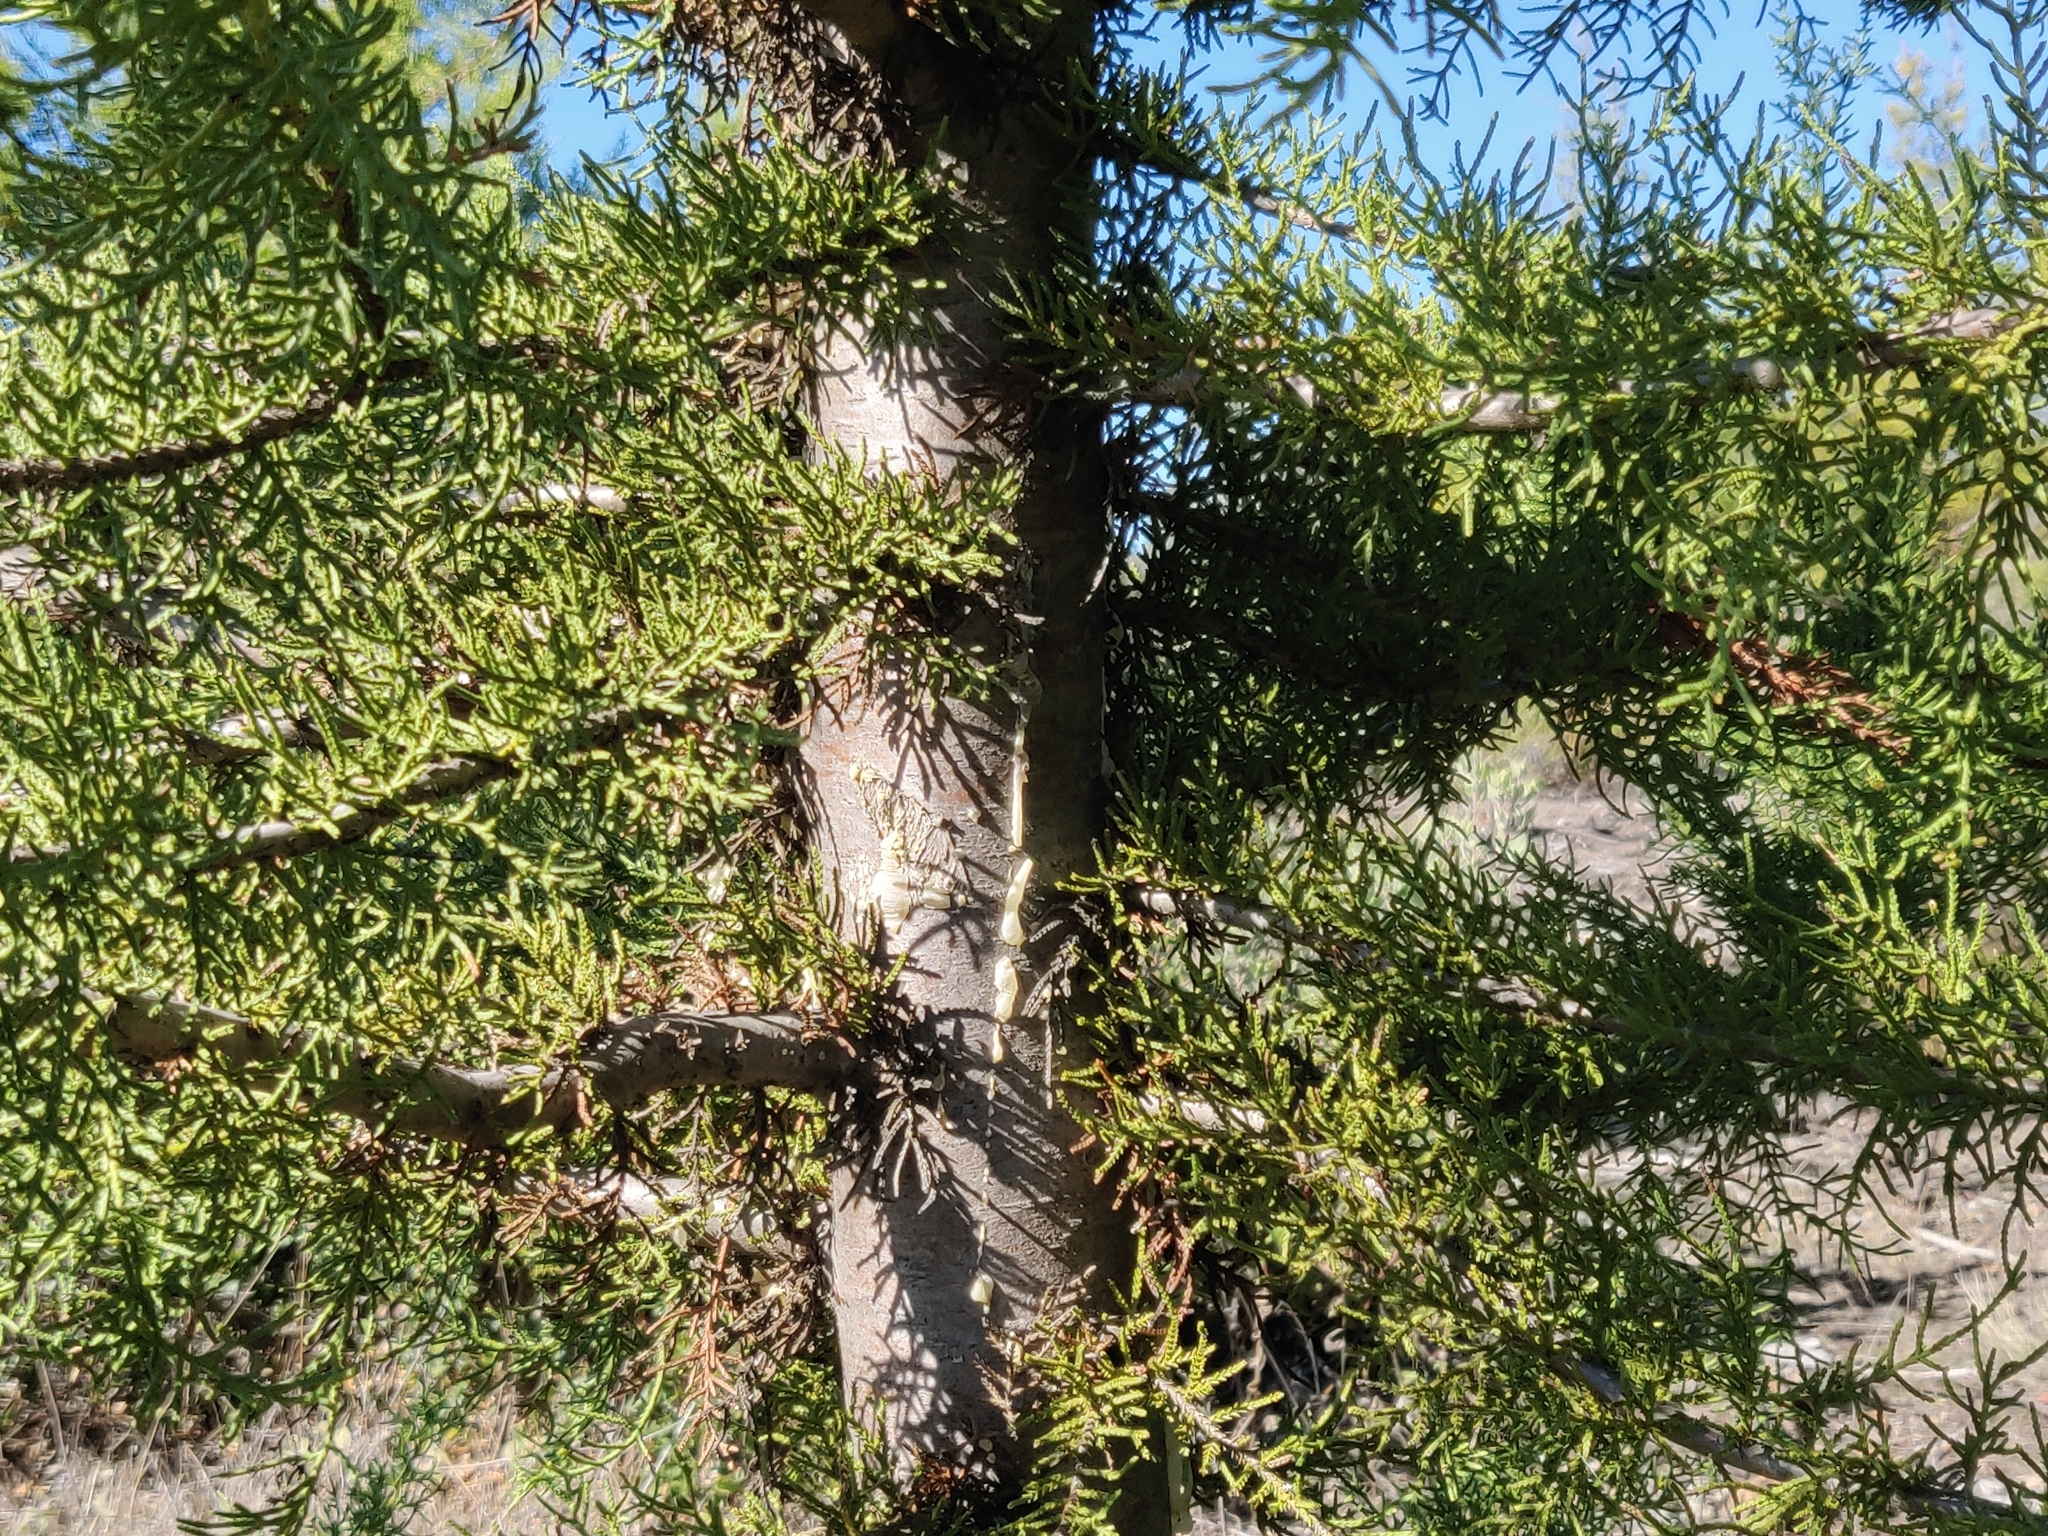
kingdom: Plantae
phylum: Tracheophyta
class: Pinopsida
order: Pinales
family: Cupressaceae
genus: Cupressus
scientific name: Cupressus goveniana
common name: Gowen cypress
